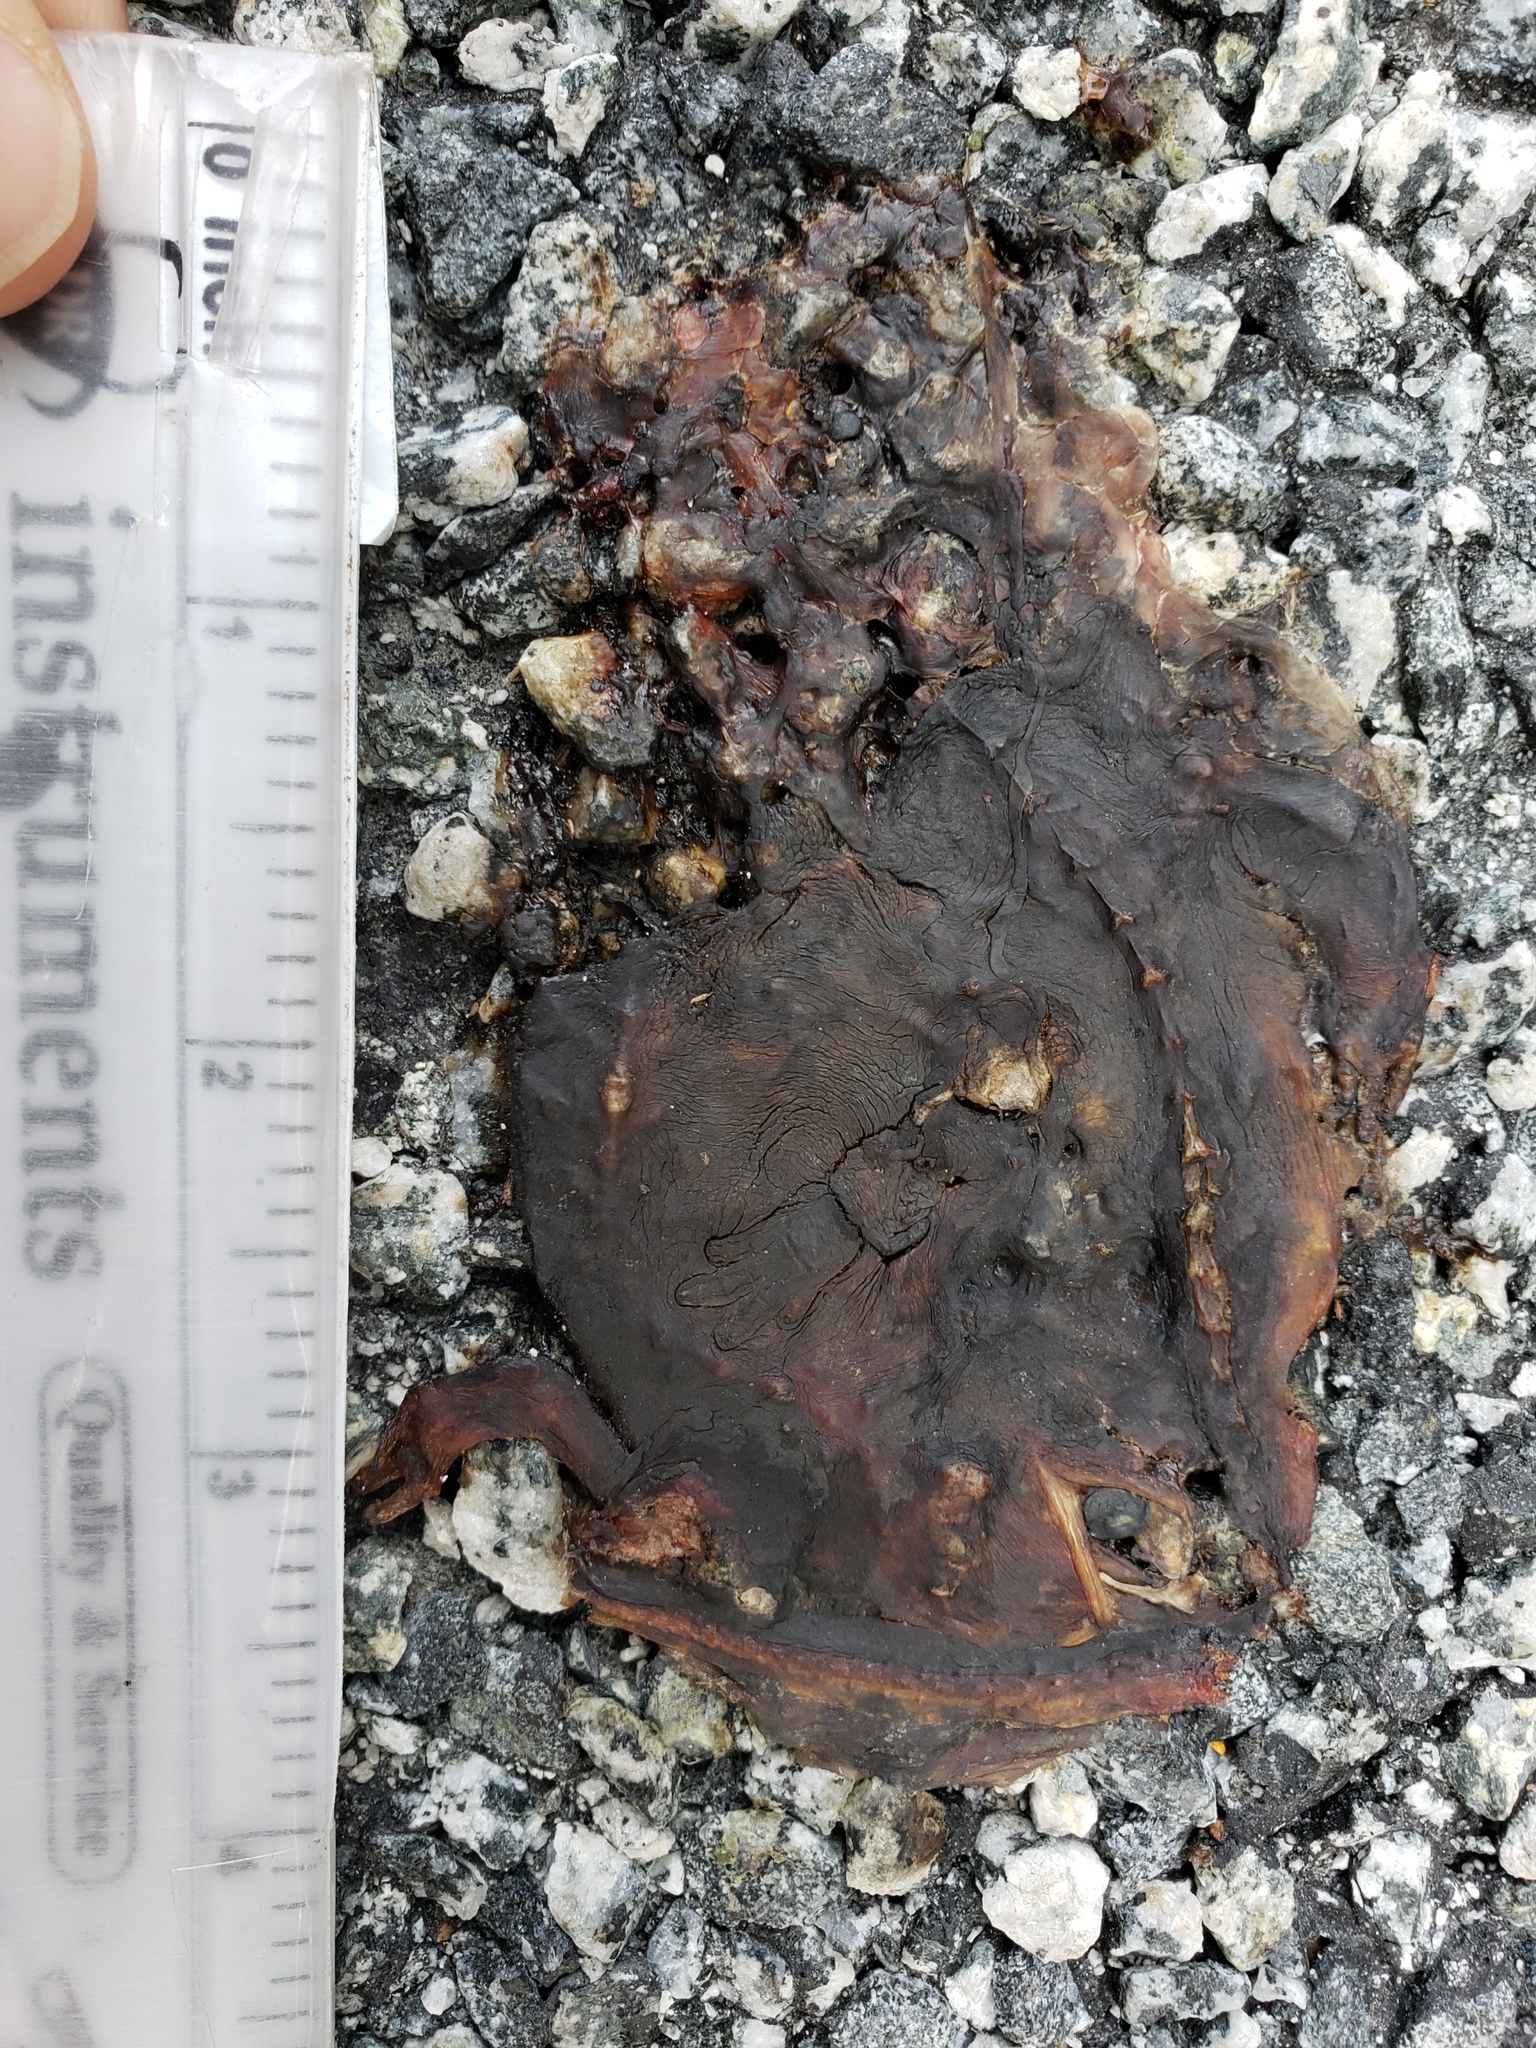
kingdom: Animalia
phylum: Chordata
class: Amphibia
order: Caudata
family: Salamandridae
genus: Taricha
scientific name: Taricha
